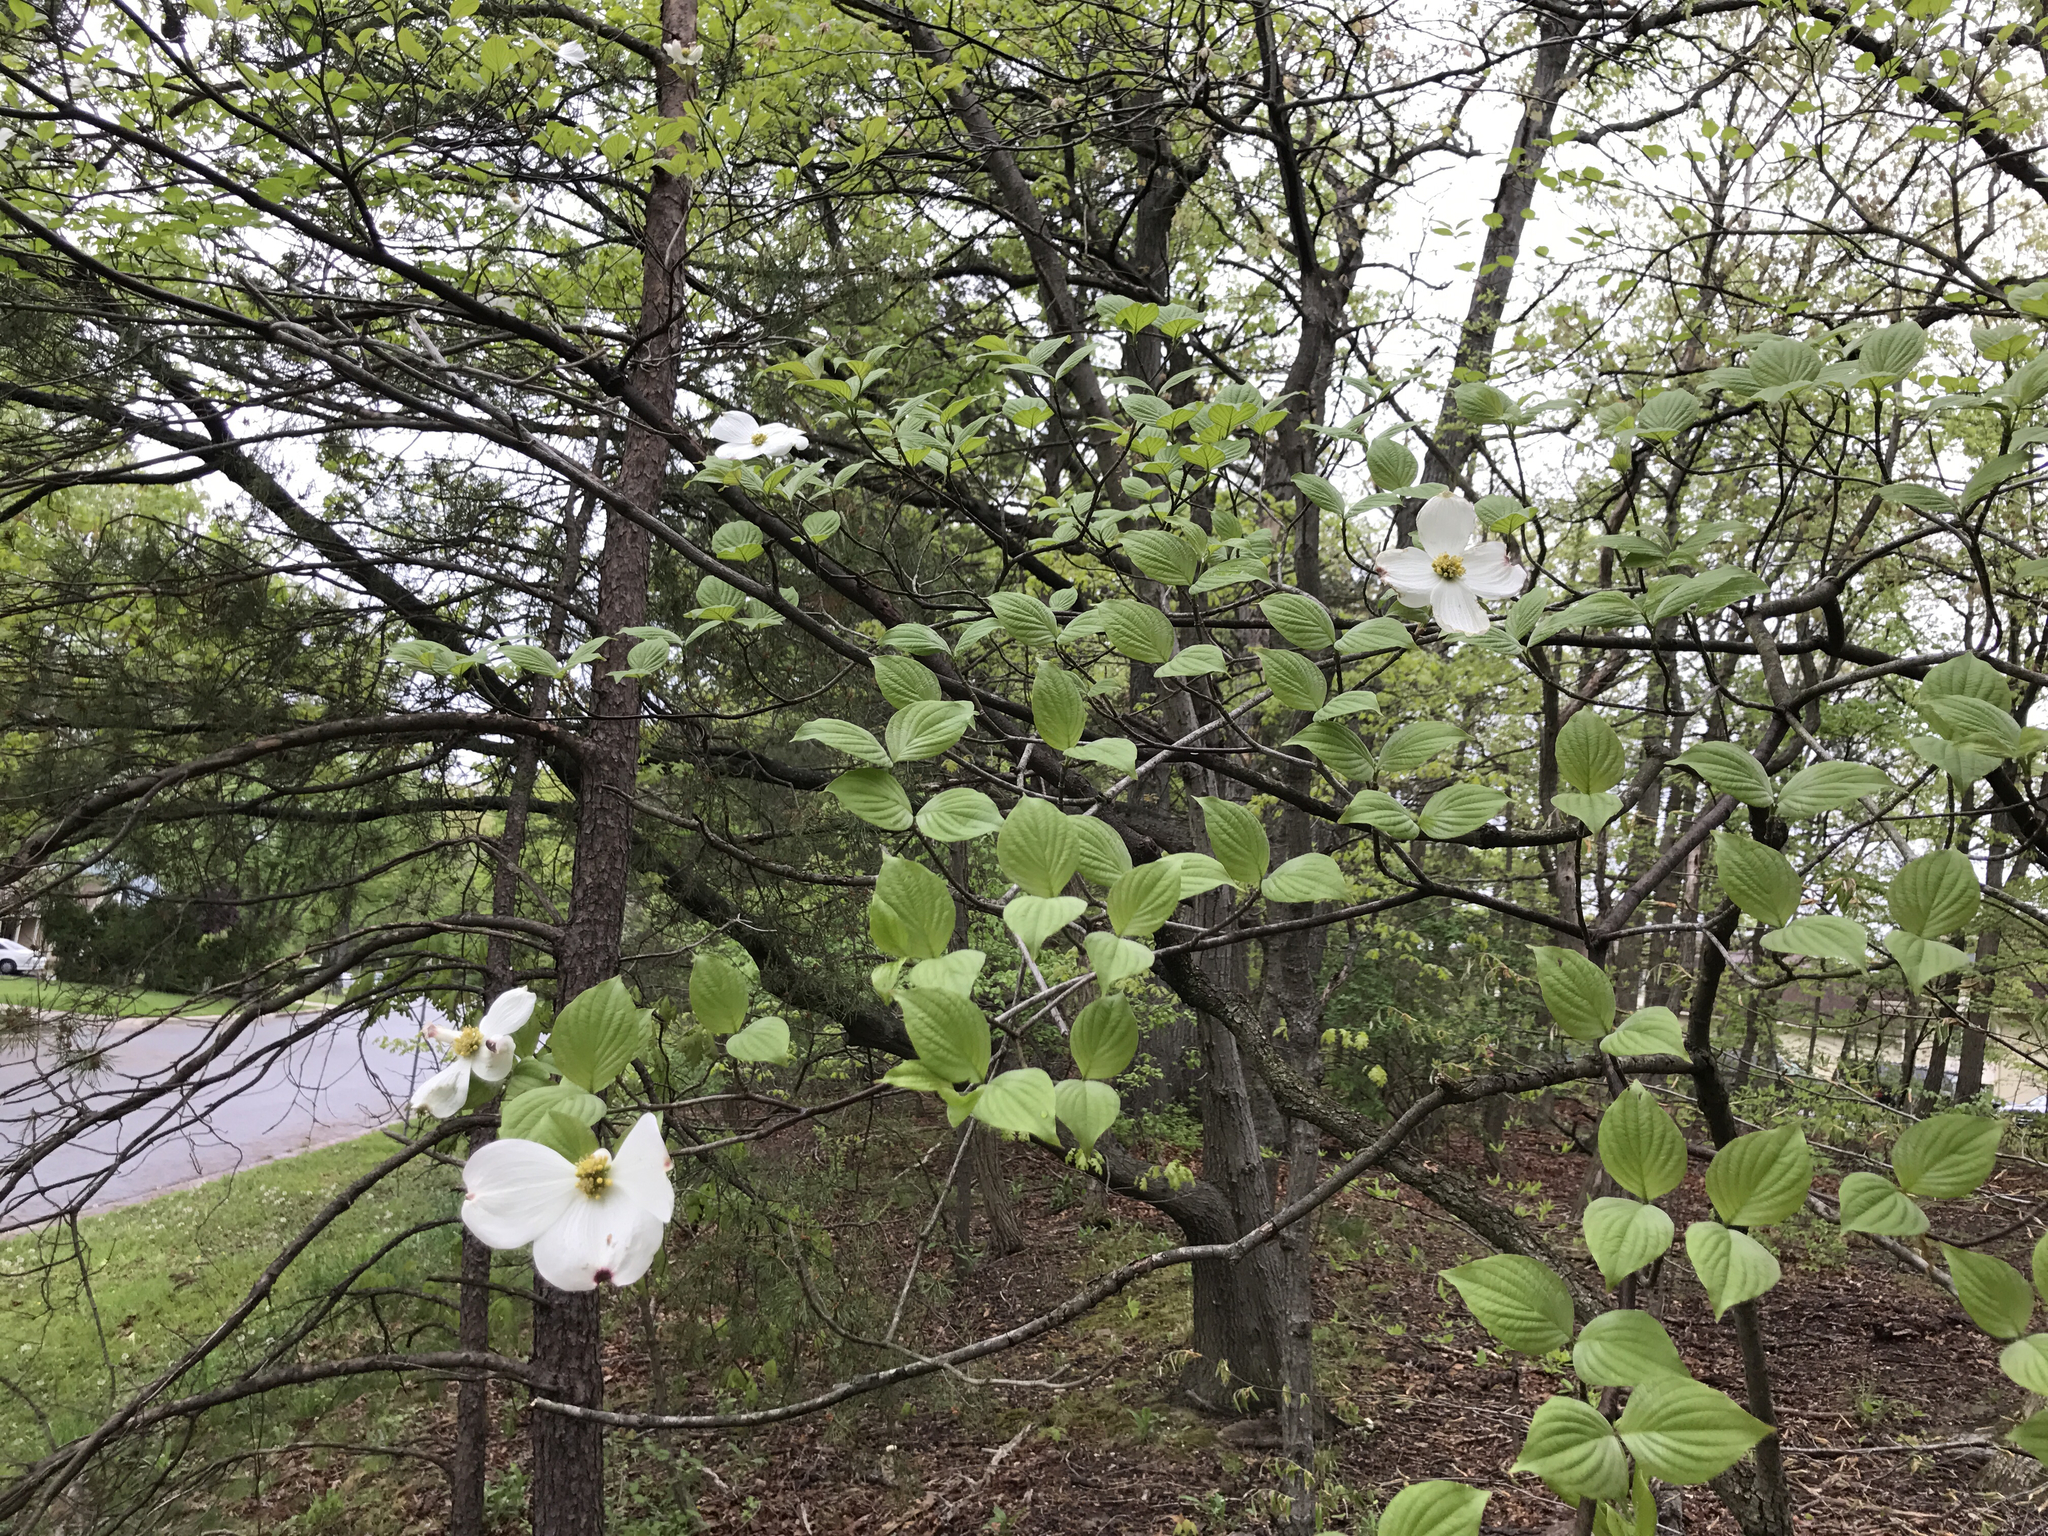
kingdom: Plantae
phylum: Tracheophyta
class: Magnoliopsida
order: Cornales
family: Cornaceae
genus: Cornus
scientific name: Cornus florida
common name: Flowering dogwood
